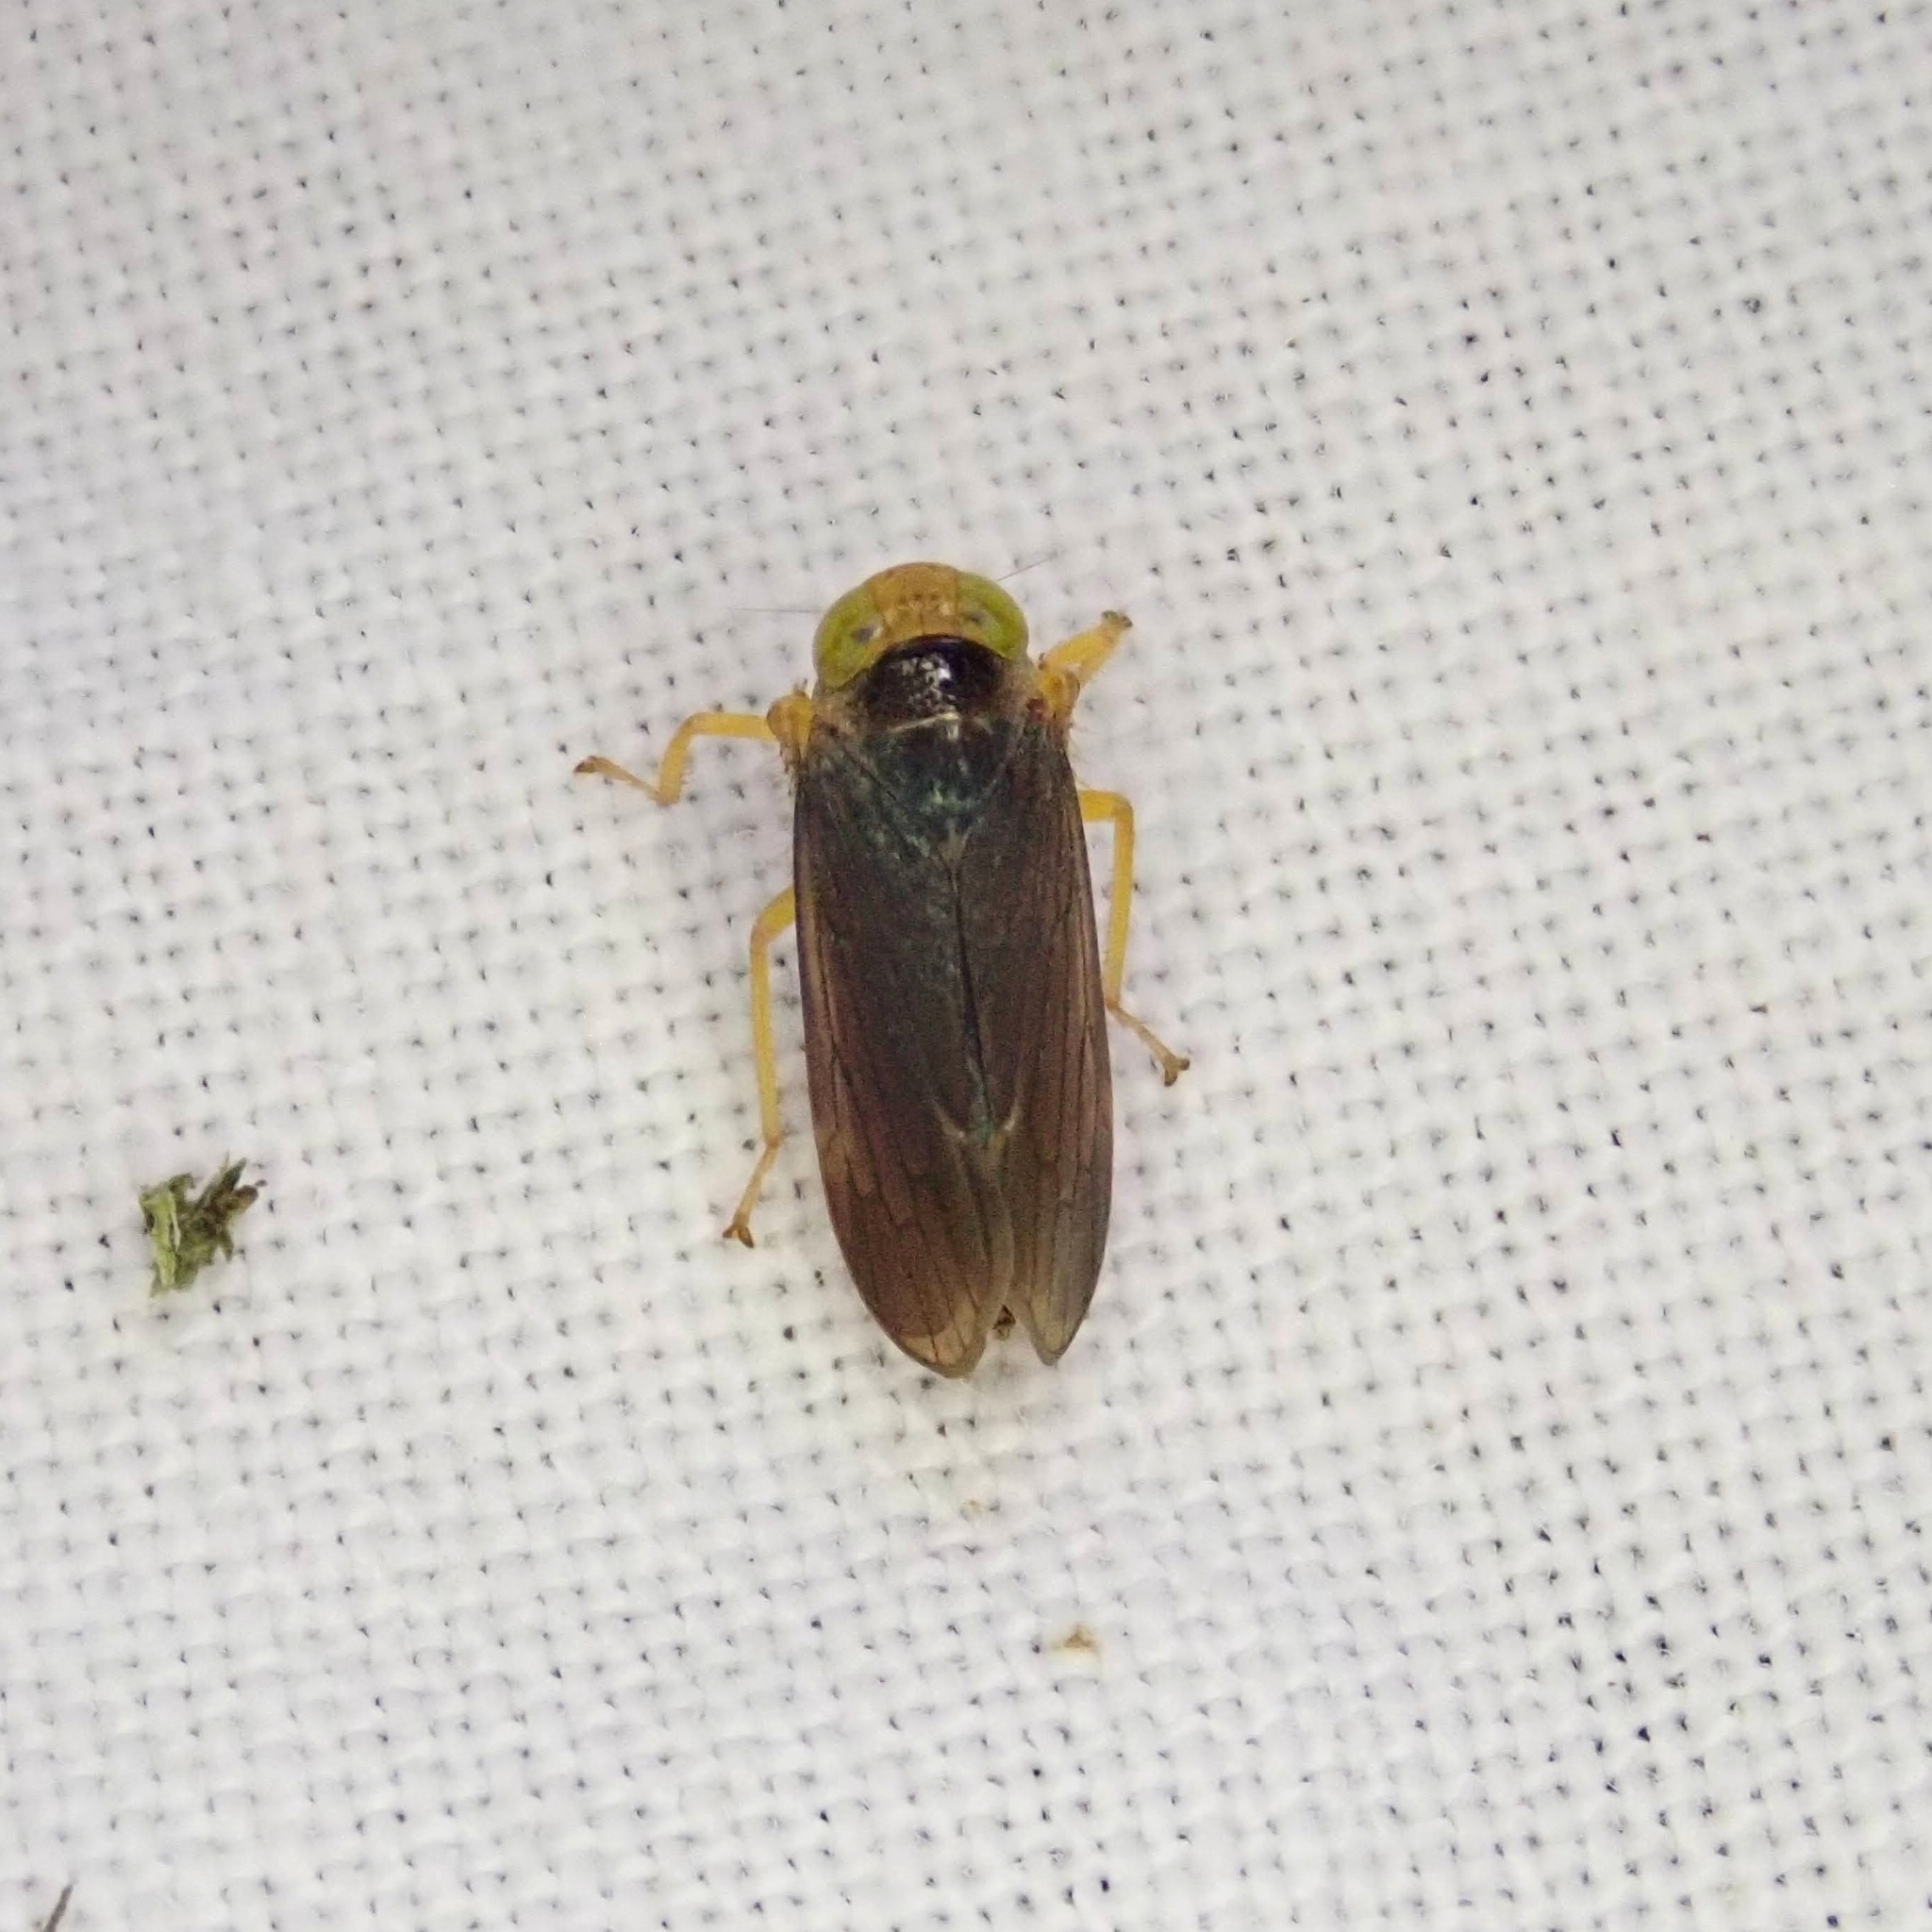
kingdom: Animalia
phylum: Arthropoda
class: Insecta
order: Hemiptera
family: Cicadellidae
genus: Jikradia
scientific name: Jikradia olitoria
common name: Coppery leafhopper
